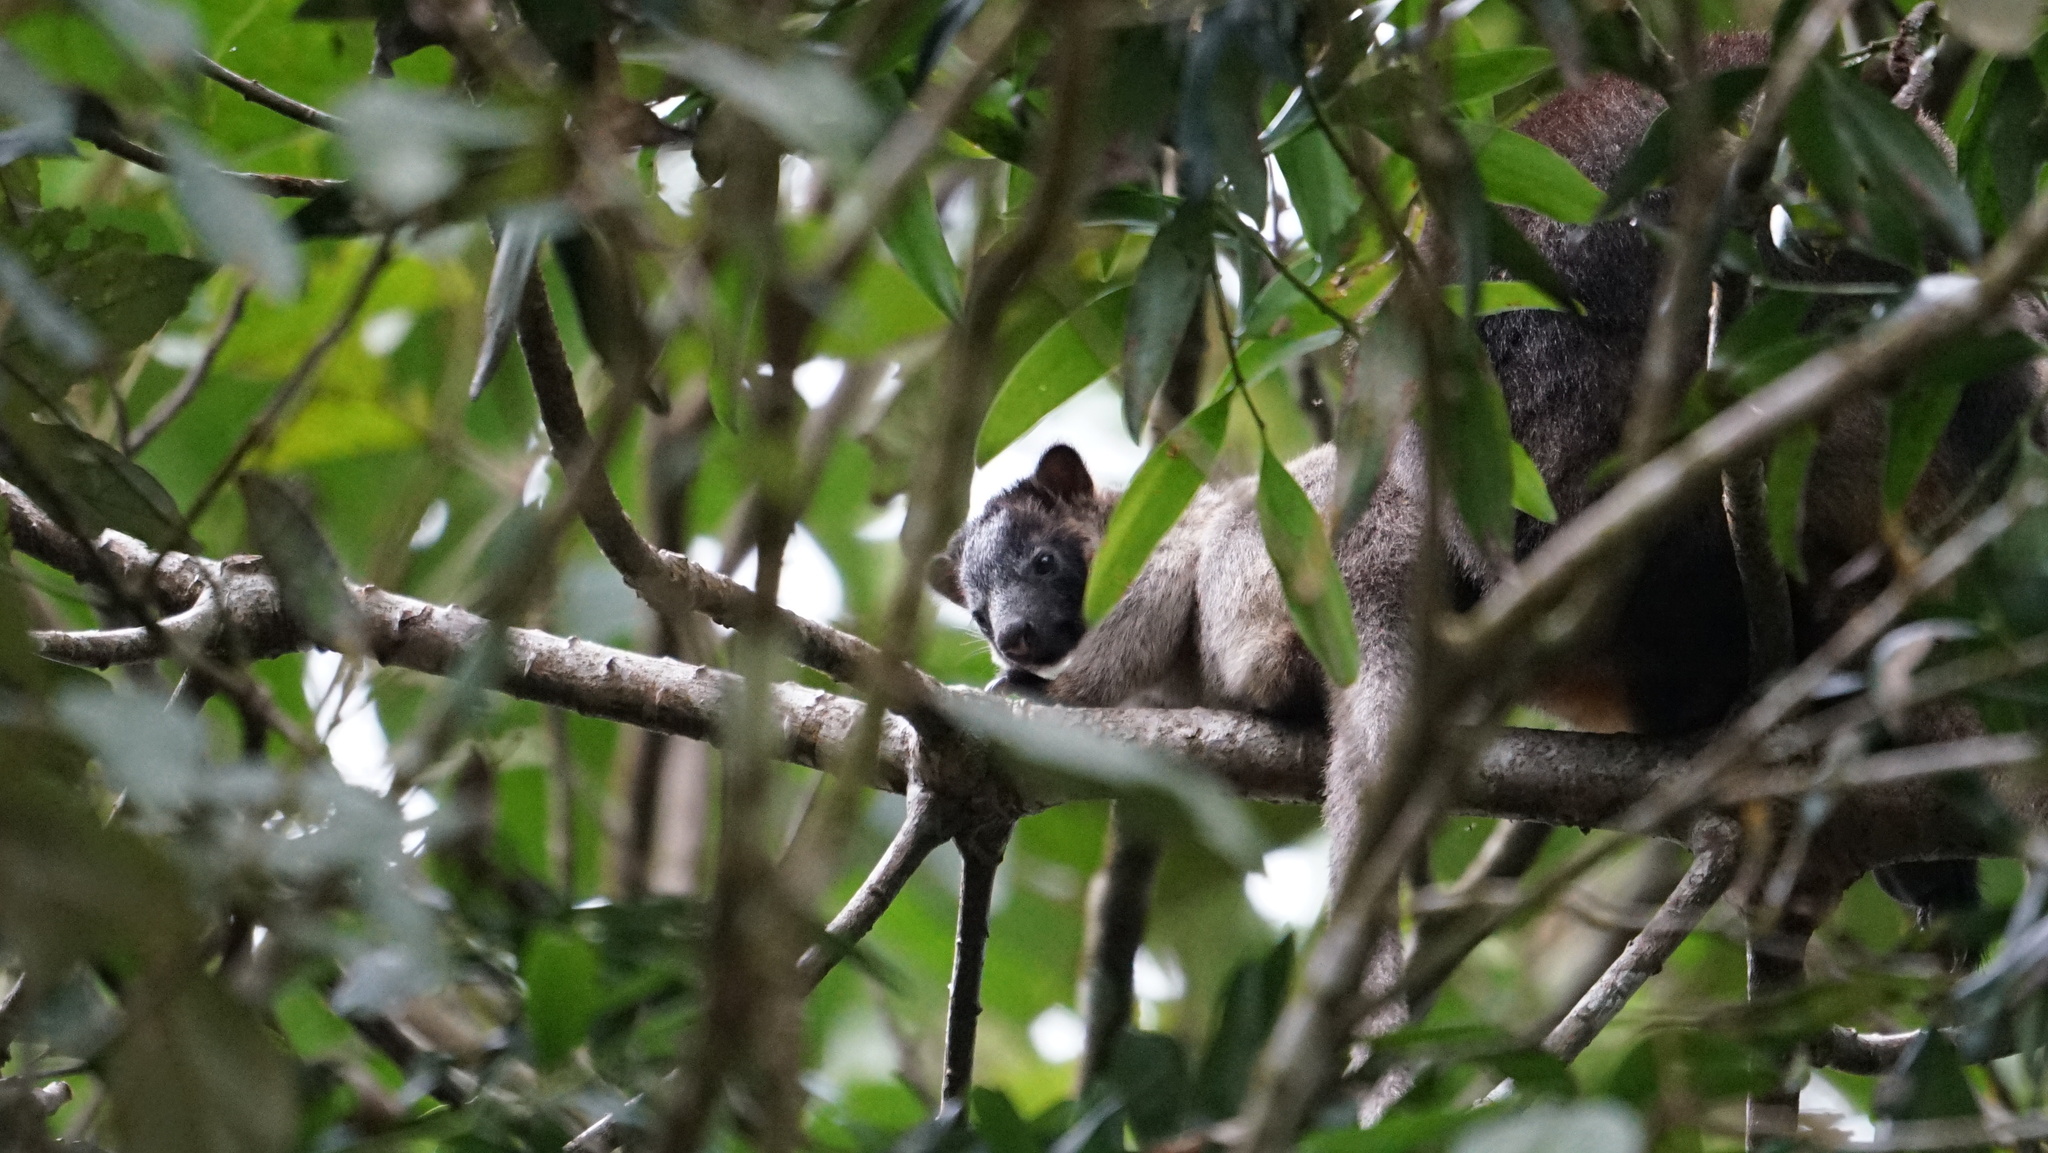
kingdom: Animalia
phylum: Chordata
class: Mammalia
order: Diprotodontia
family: Macropodidae
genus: Dendrolagus
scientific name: Dendrolagus lumholtzi
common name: Lumholtz's tree kangaroo
